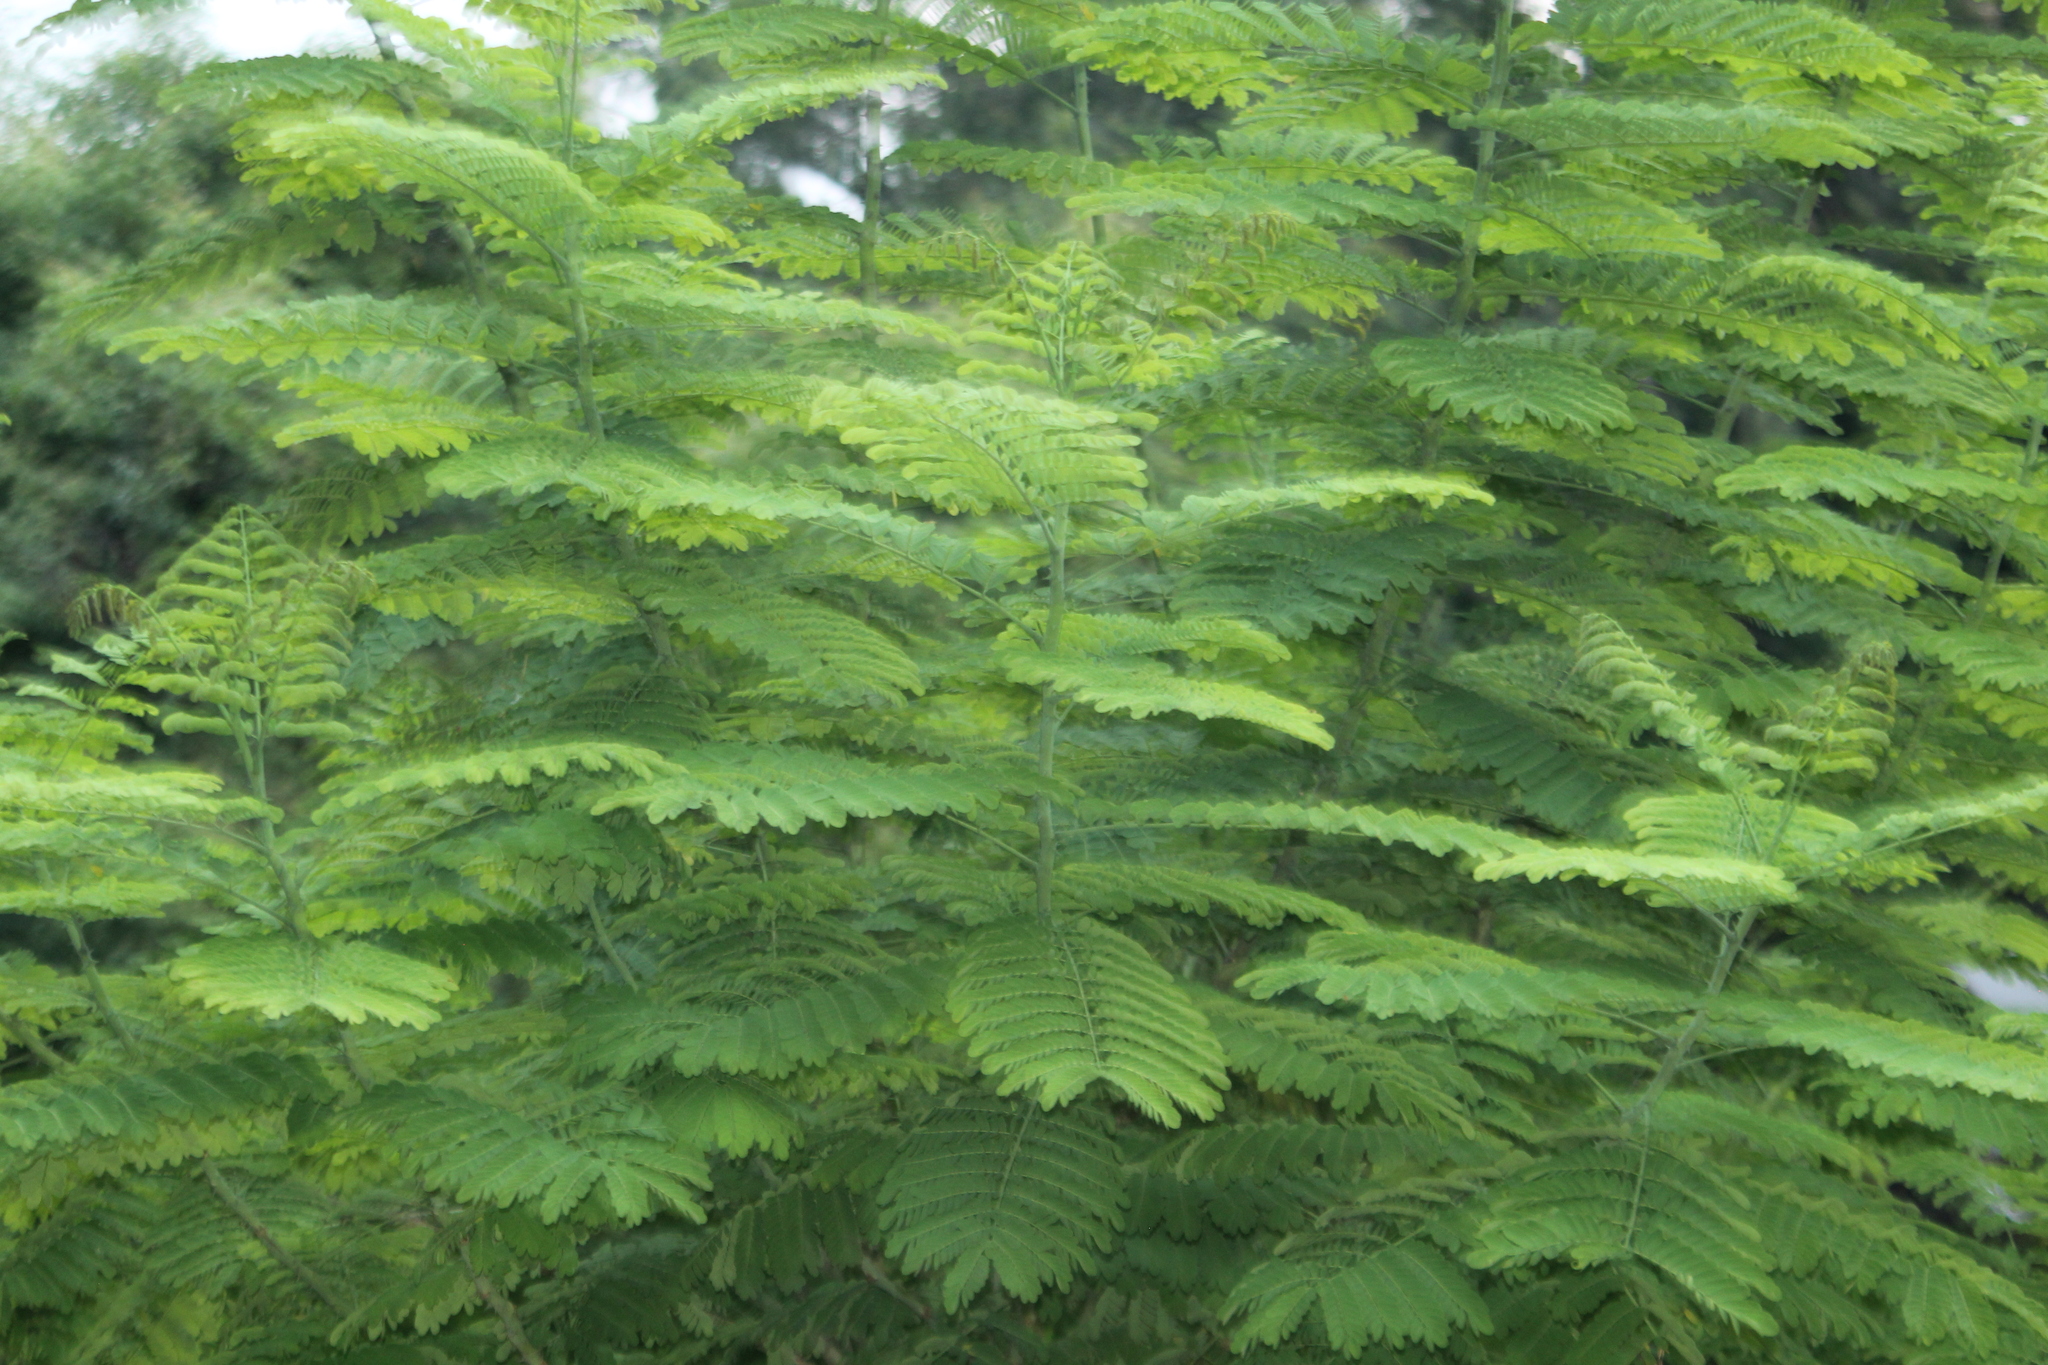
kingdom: Plantae
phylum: Tracheophyta
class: Magnoliopsida
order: Fabales
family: Fabaceae
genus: Caesalpinia
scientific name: Caesalpinia pulcherrima
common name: Pride-of-barbados
